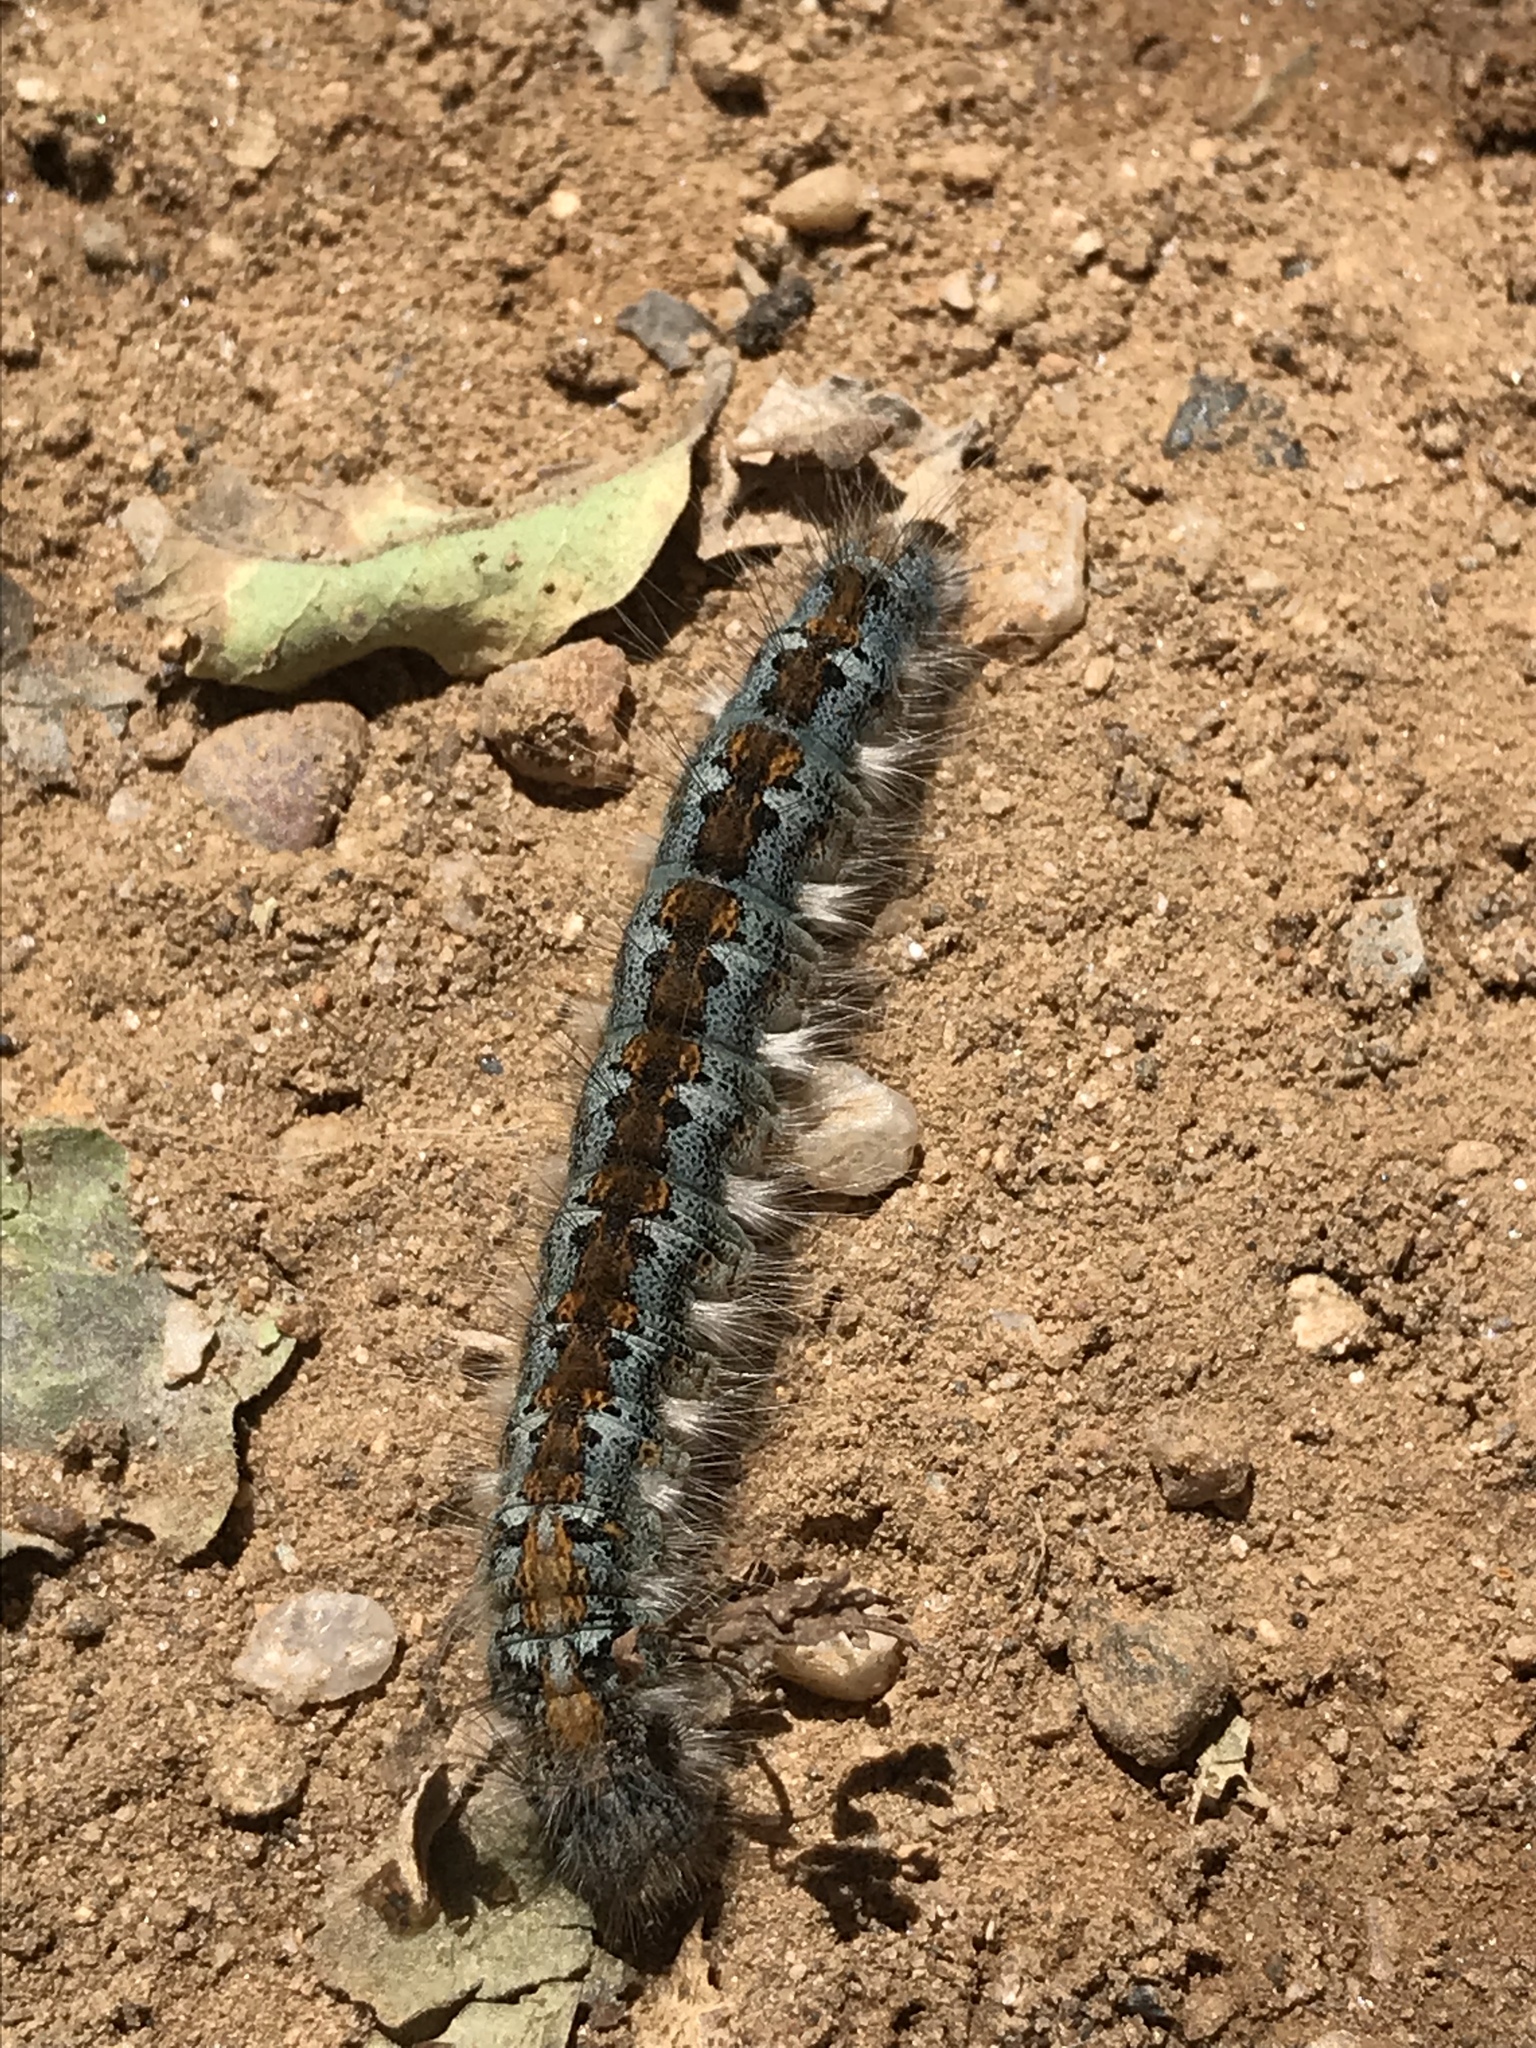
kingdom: Animalia
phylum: Arthropoda
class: Insecta
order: Lepidoptera
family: Lasiocampidae
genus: Malacosoma
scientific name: Malacosoma constricta
